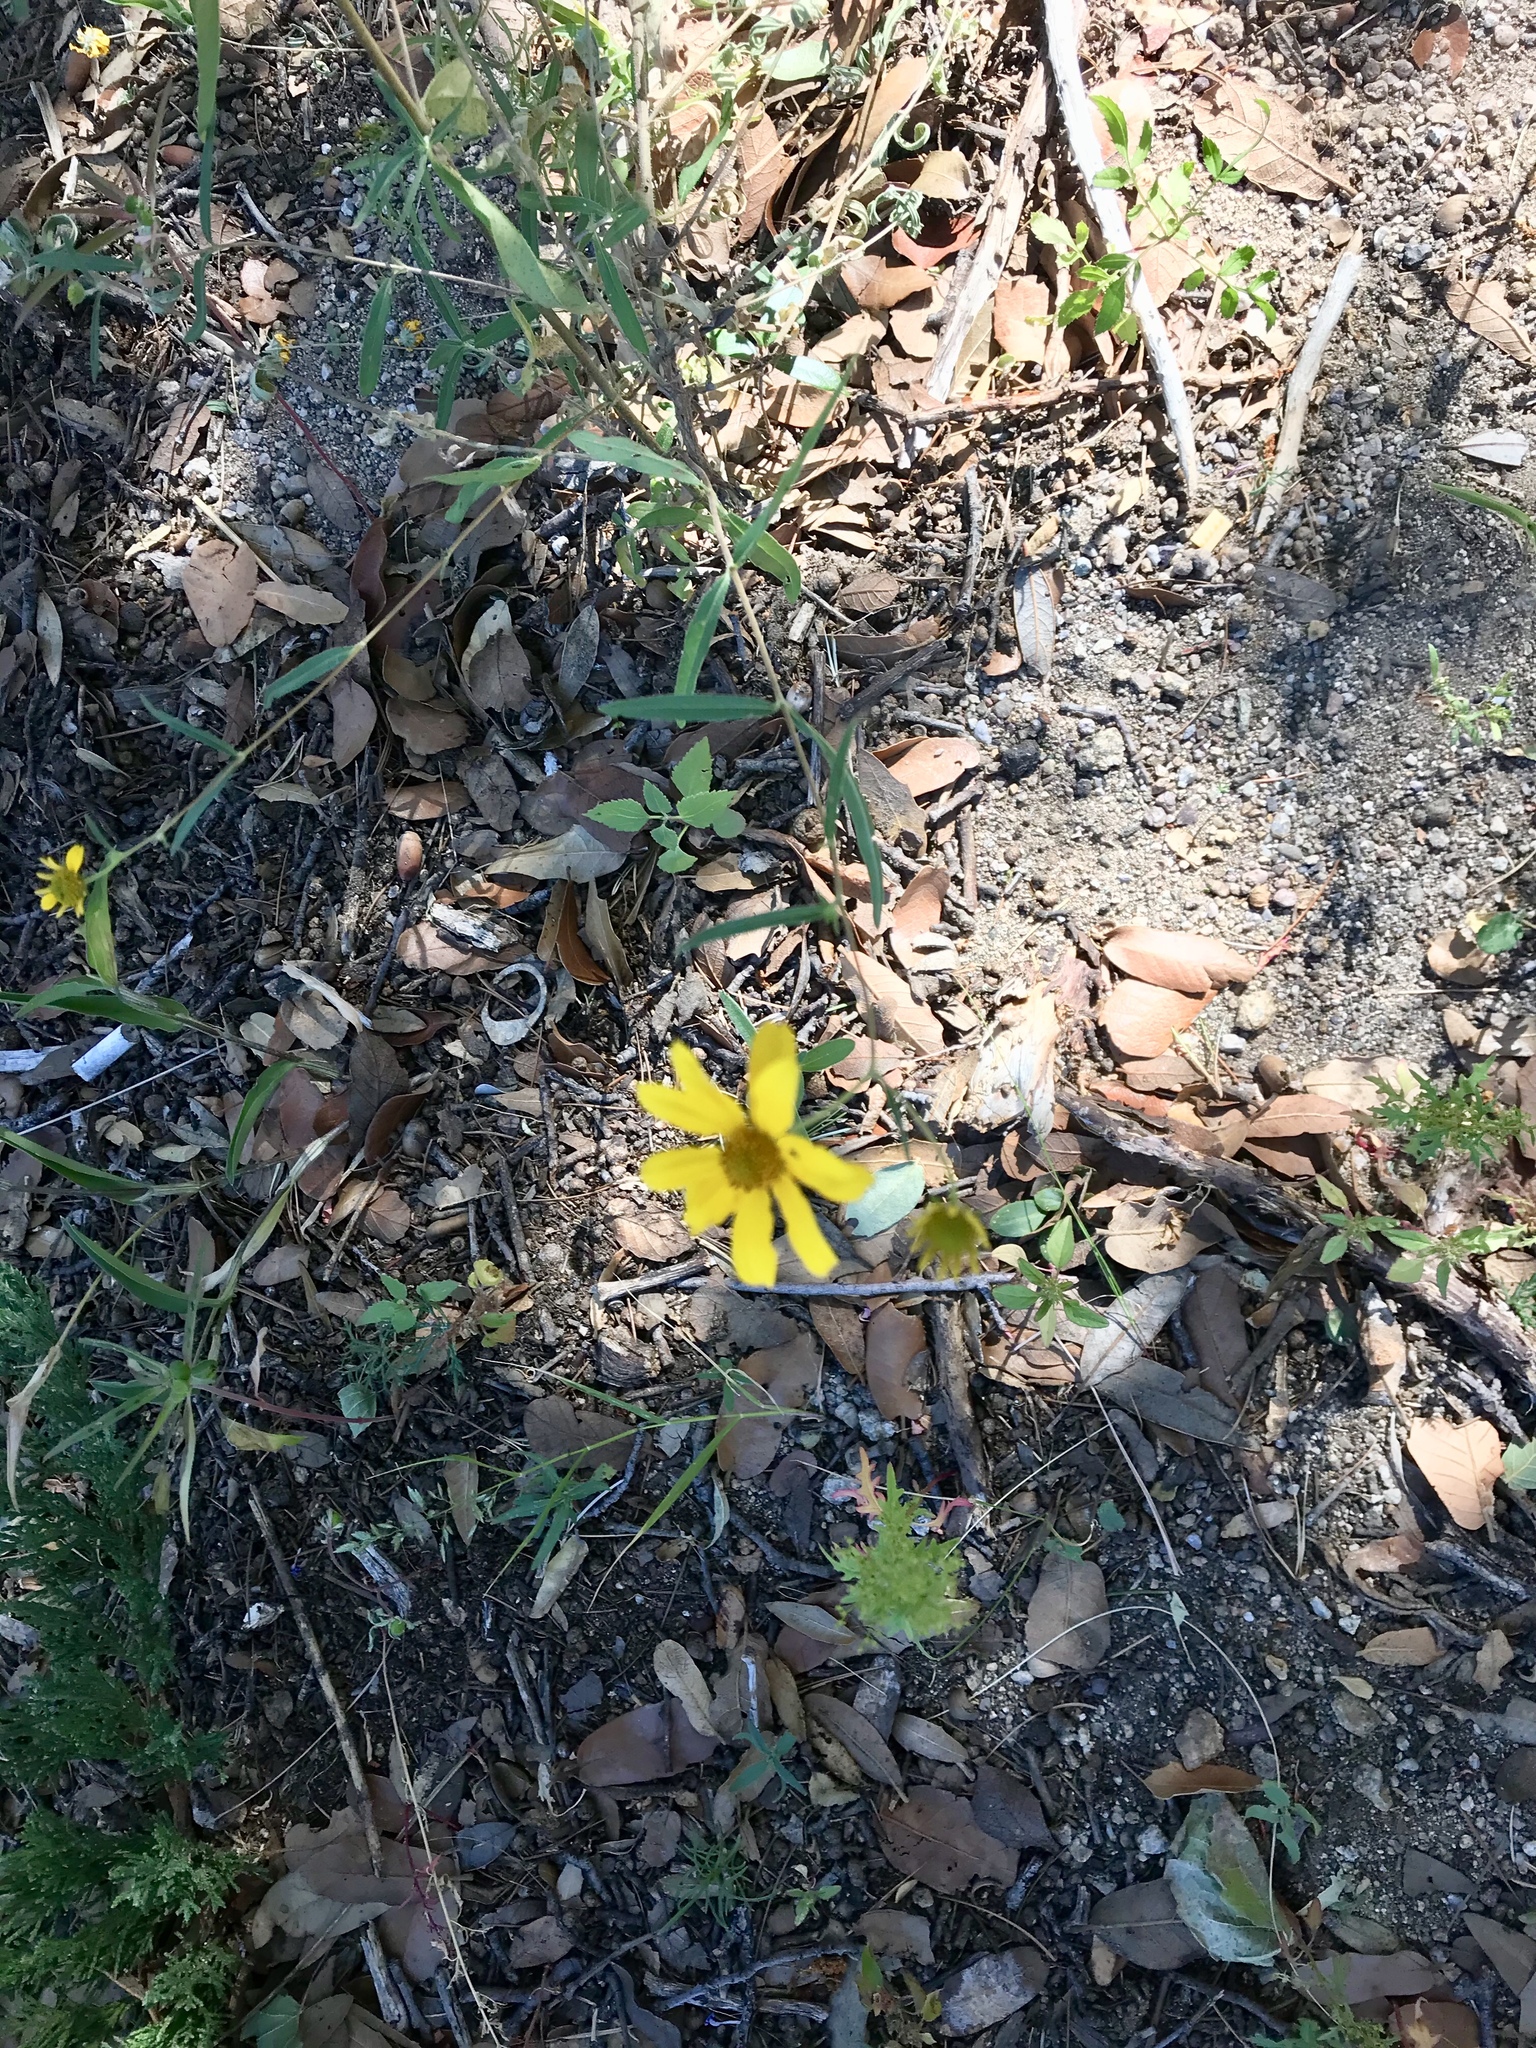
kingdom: Plantae
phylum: Tracheophyta
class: Magnoliopsida
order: Asterales
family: Asteraceae
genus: Heliomeris
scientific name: Heliomeris multiflora
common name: Showy goldeneye
